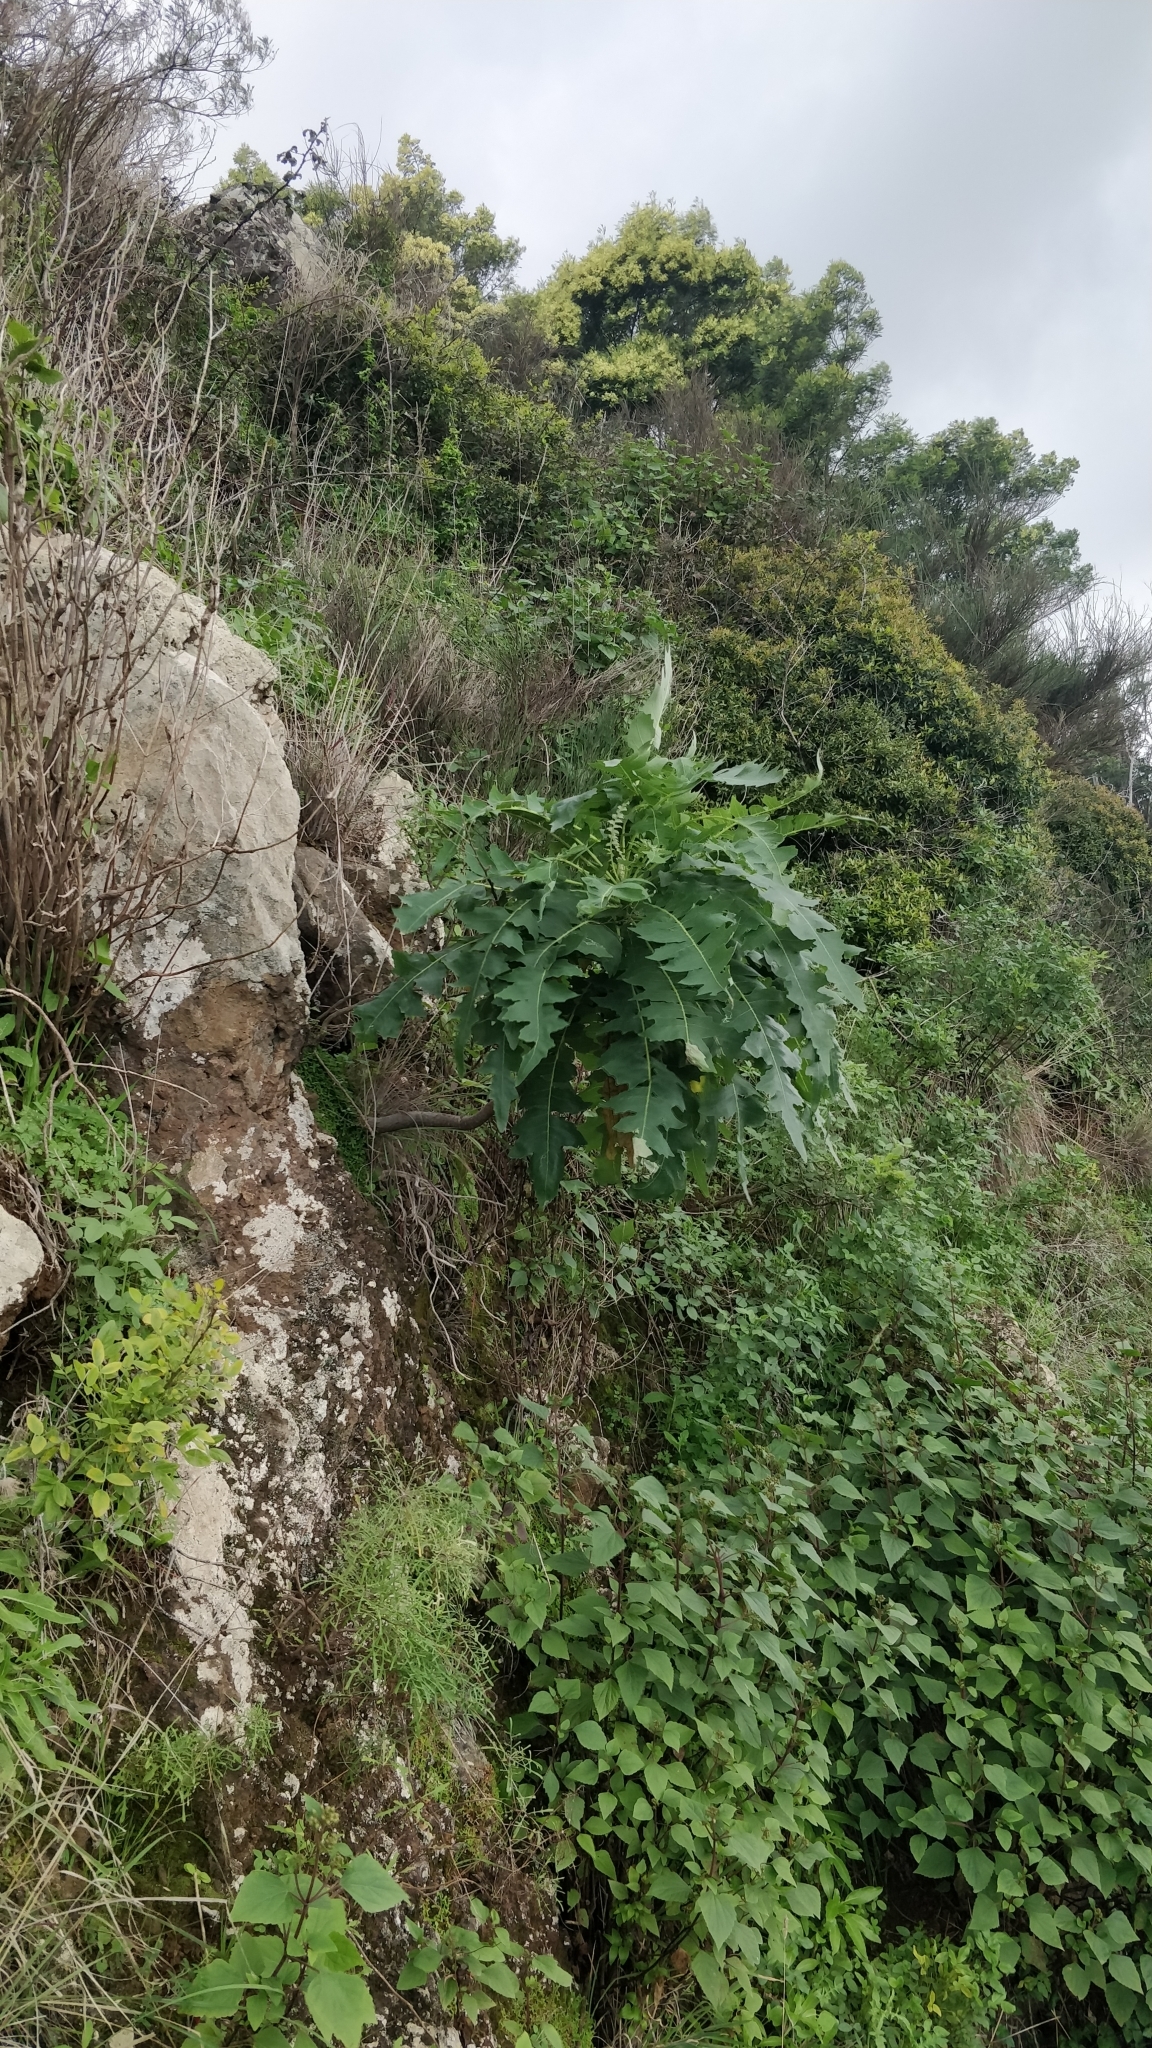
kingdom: Plantae
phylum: Tracheophyta
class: Magnoliopsida
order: Asterales
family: Asteraceae
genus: Sonchus
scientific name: Sonchus pinnatus
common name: Wing-leaved sow-thistle
